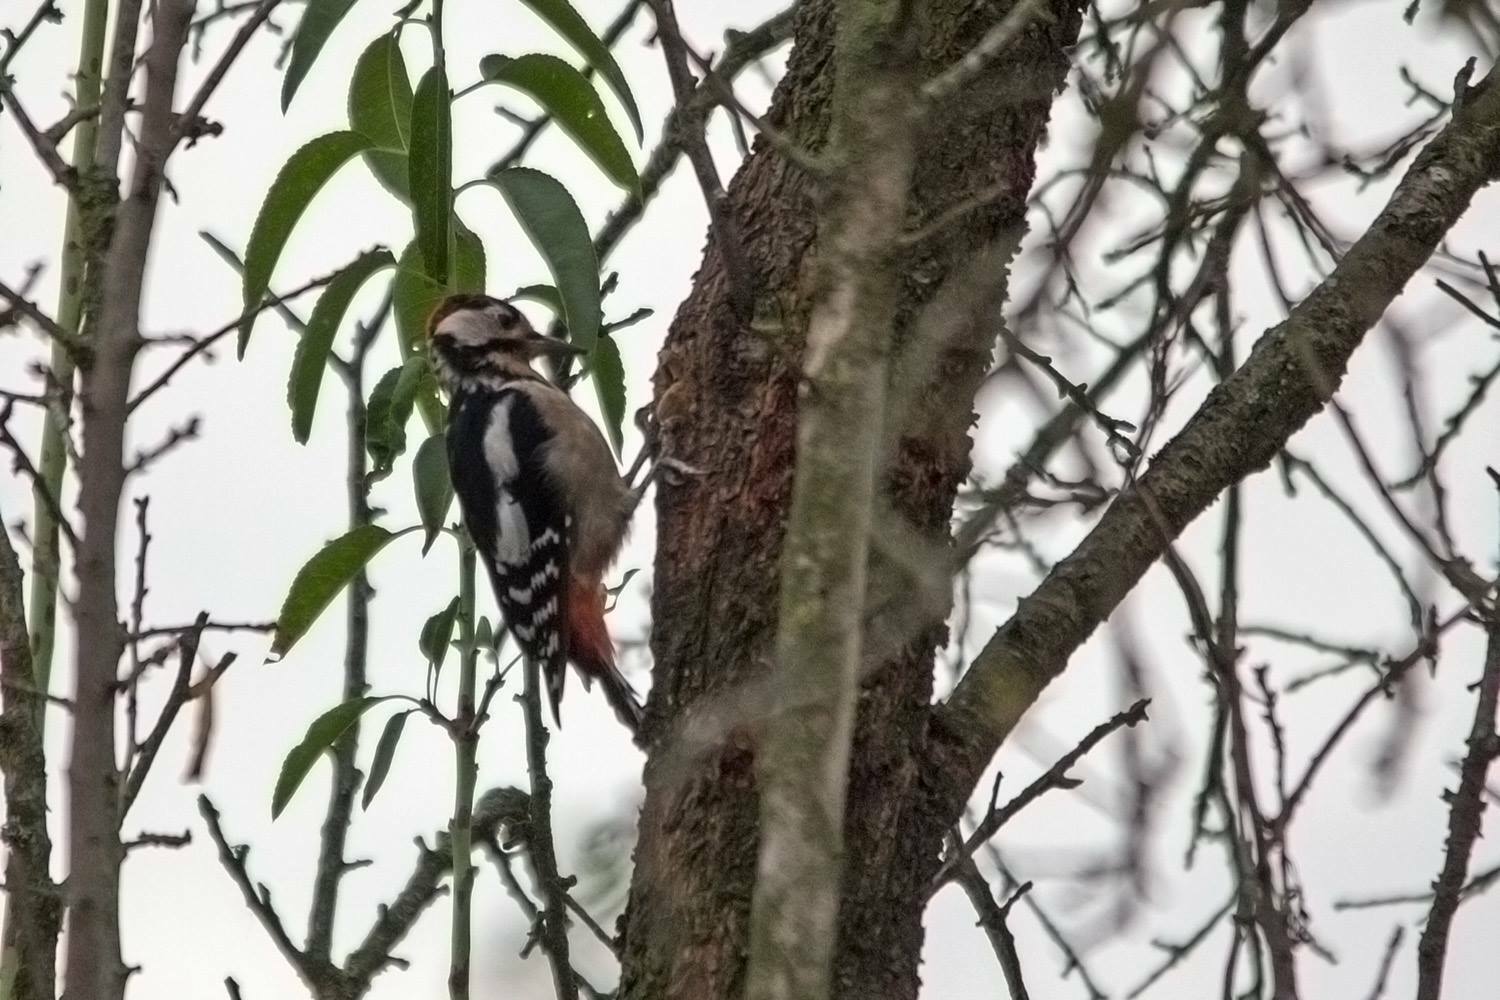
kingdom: Animalia
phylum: Chordata
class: Aves
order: Piciformes
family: Picidae
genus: Dendrocopos
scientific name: Dendrocopos major
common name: Great spotted woodpecker
